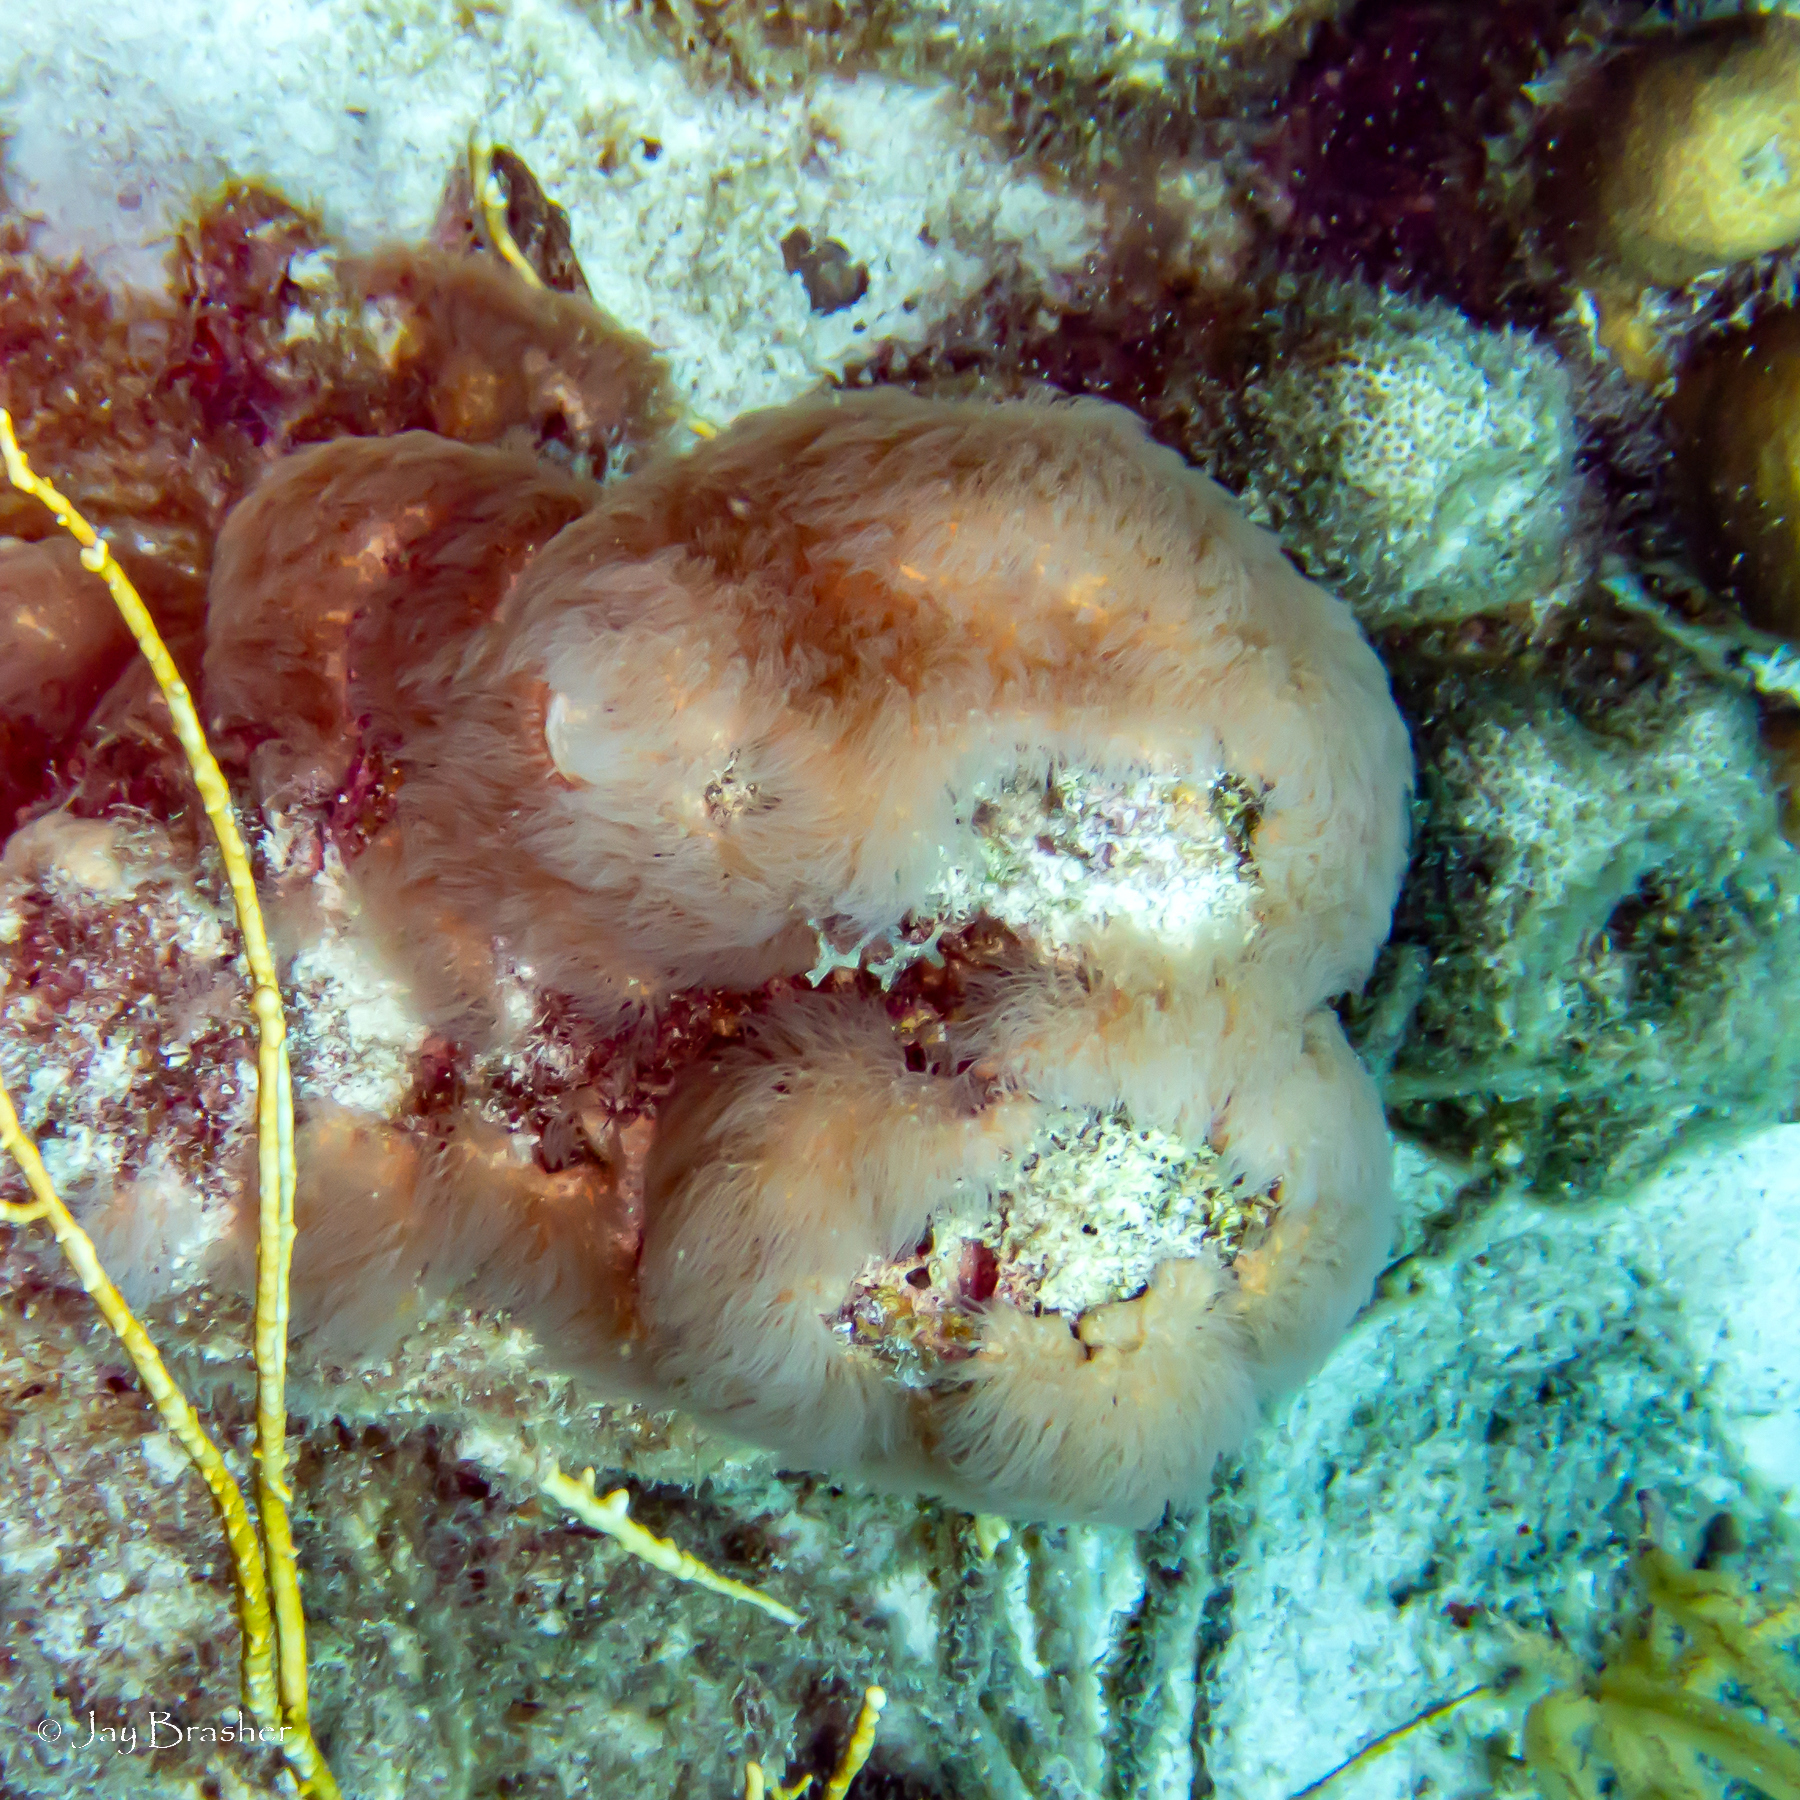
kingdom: Animalia
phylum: Cnidaria
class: Anthozoa
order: Scleralcyonacea
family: Erythropodiidae
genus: Erythropodium
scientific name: Erythropodium caribaeorum
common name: Encrusting gorgonian
